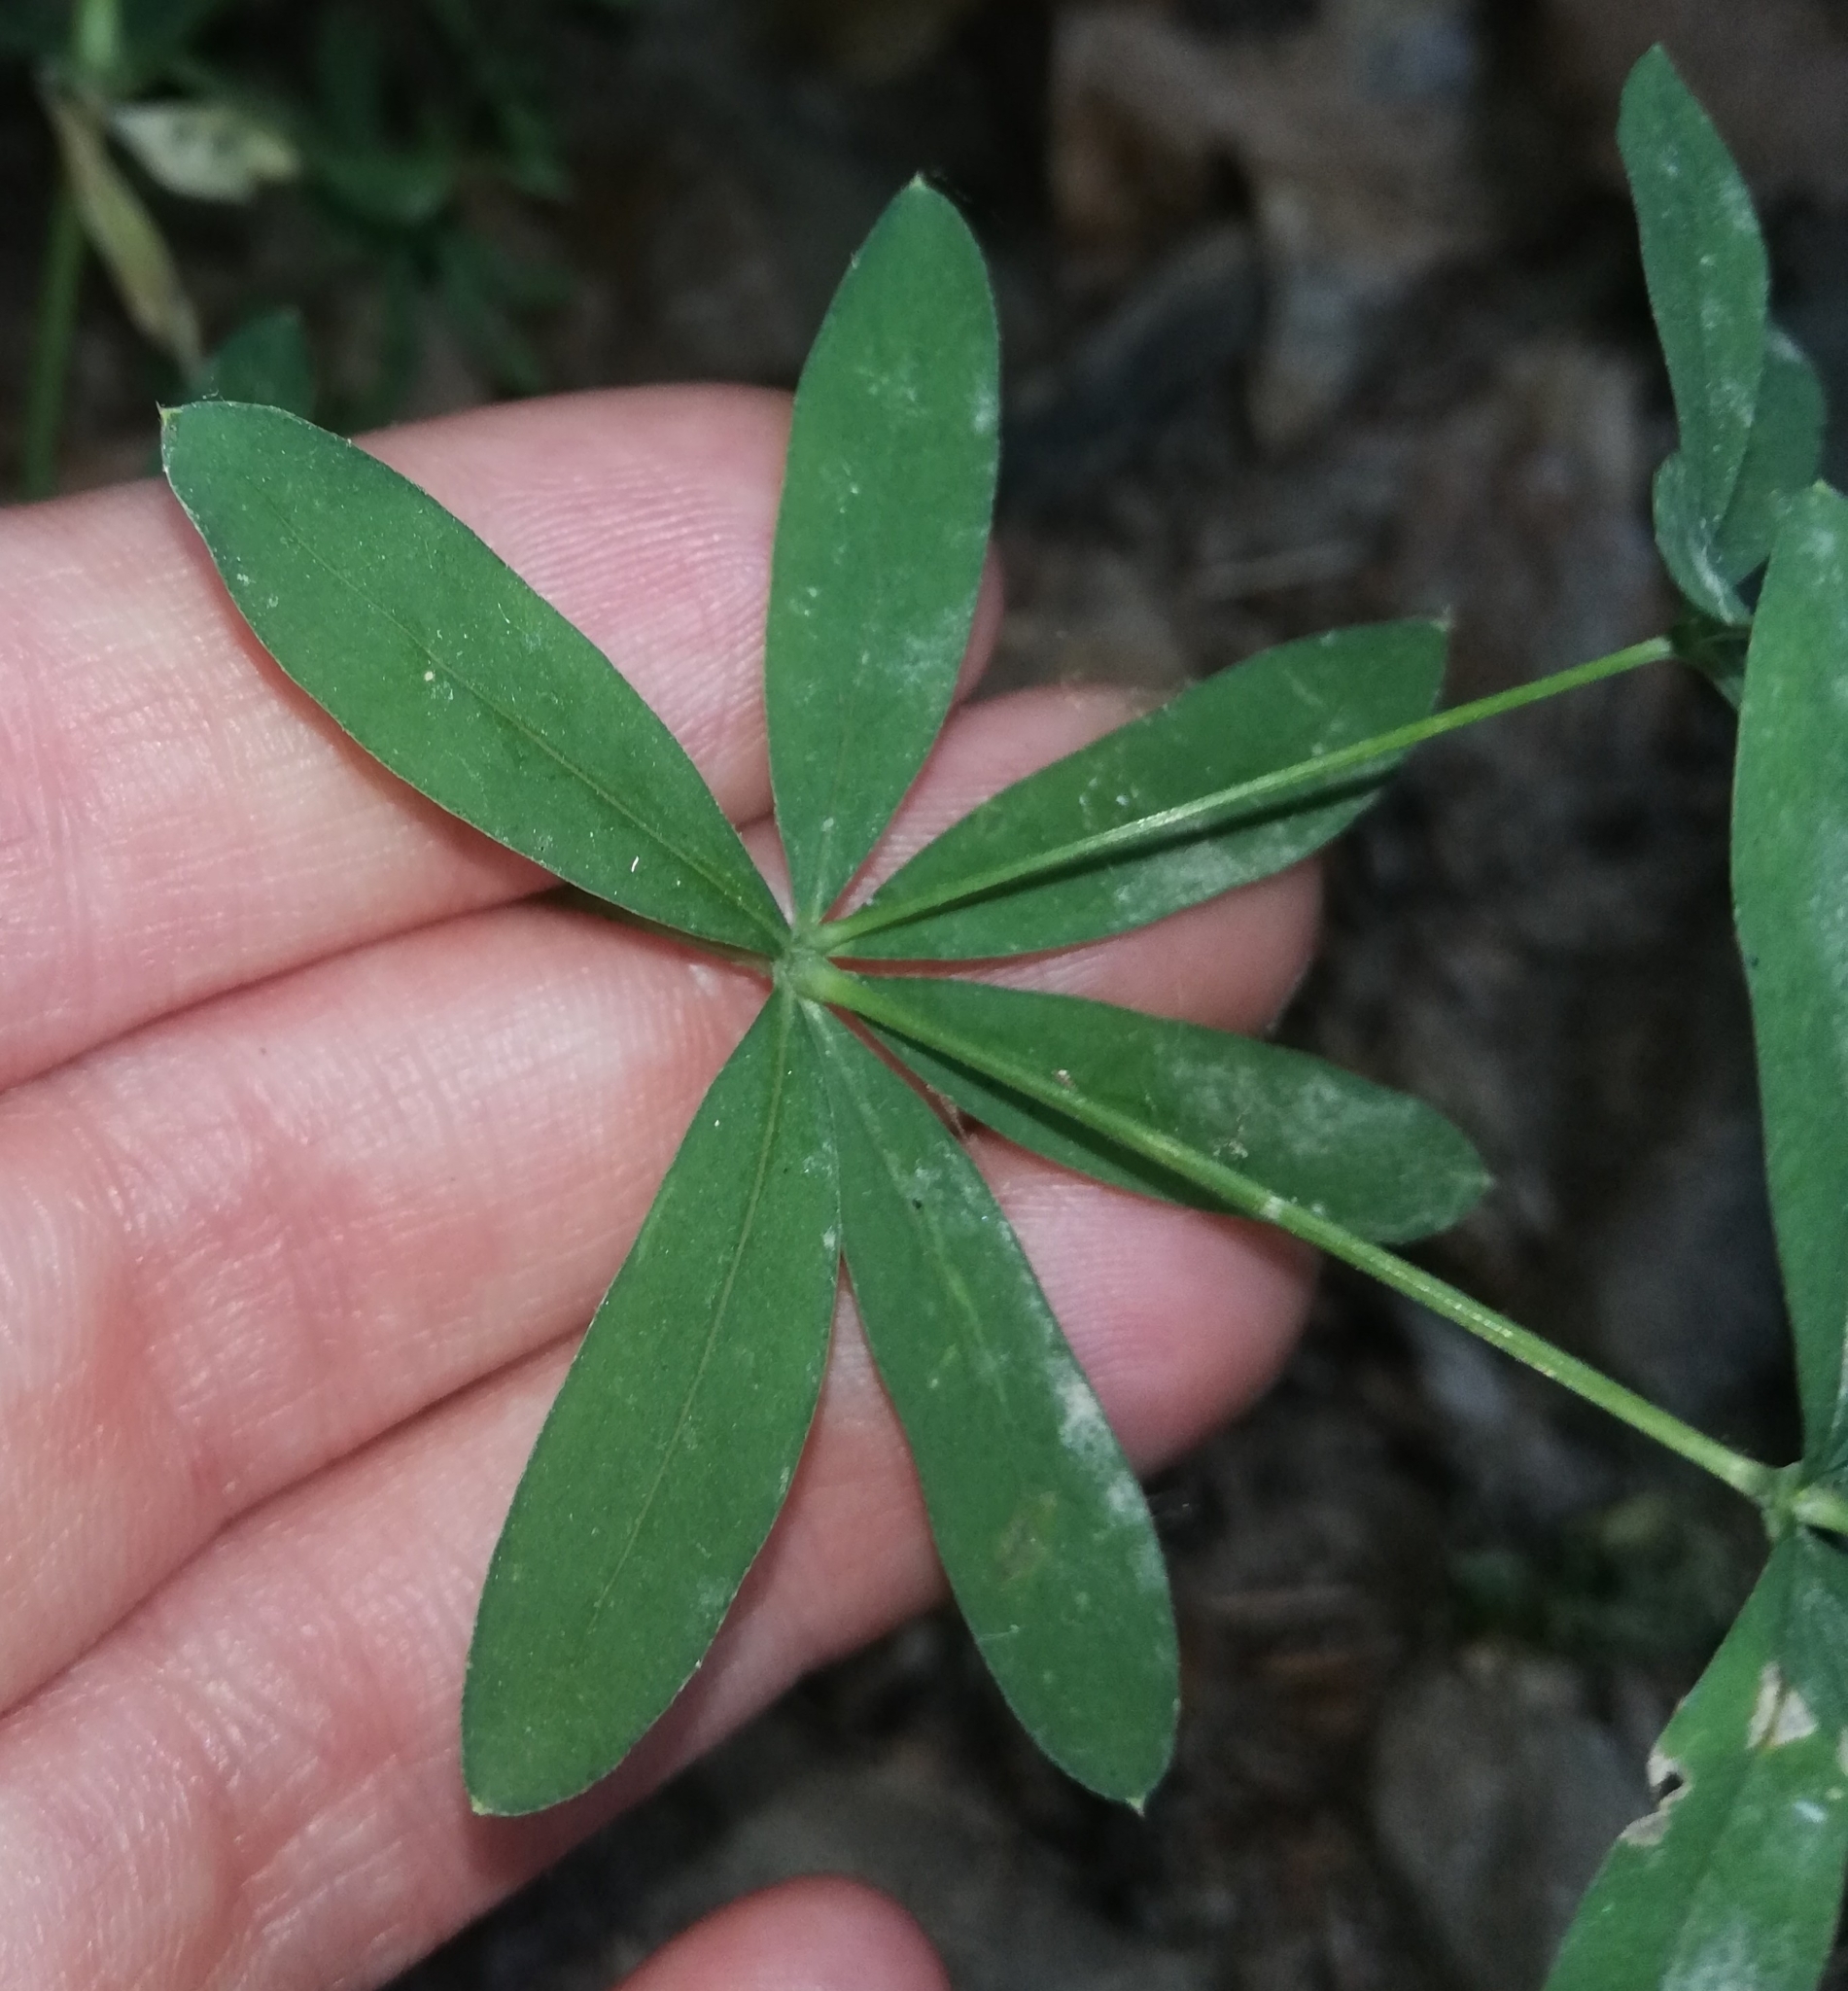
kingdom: Plantae
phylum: Tracheophyta
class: Magnoliopsida
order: Gentianales
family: Rubiaceae
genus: Galium
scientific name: Galium sylvaticum
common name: Wood bedstraw
